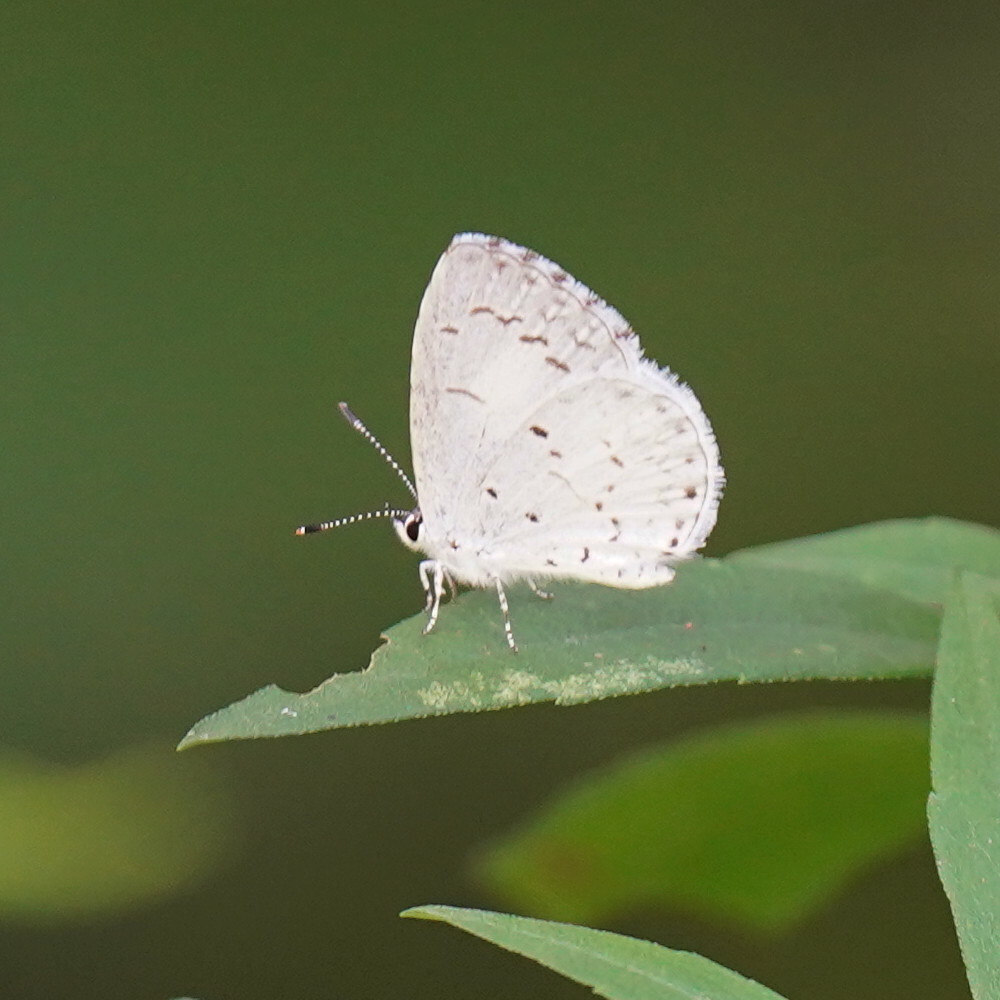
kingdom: Animalia
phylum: Arthropoda
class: Insecta
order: Lepidoptera
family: Lycaenidae
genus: Cyaniris
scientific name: Cyaniris neglecta
